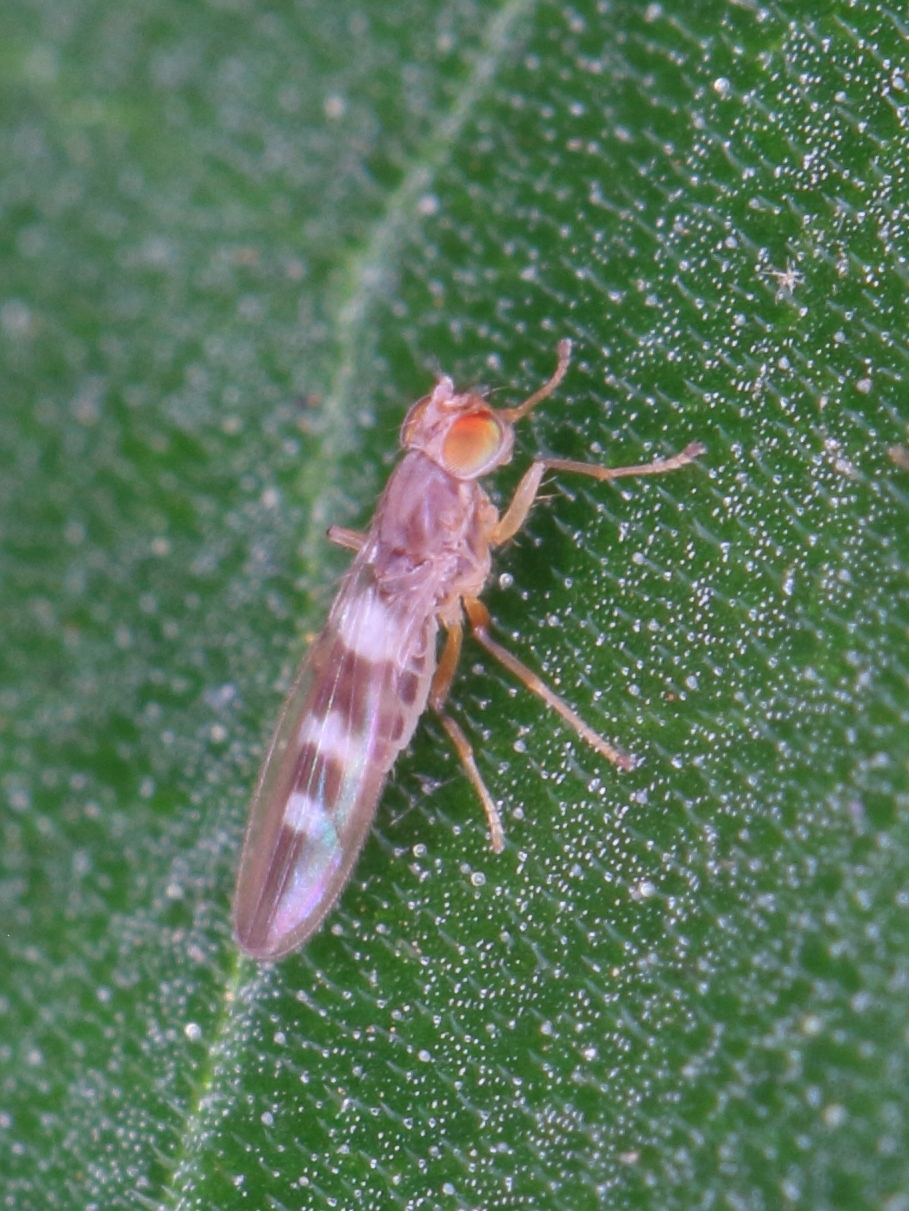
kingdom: Animalia
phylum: Arthropoda
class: Insecta
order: Diptera
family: Periscelididae
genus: Stenomicra
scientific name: Stenomicra uniconspicua
